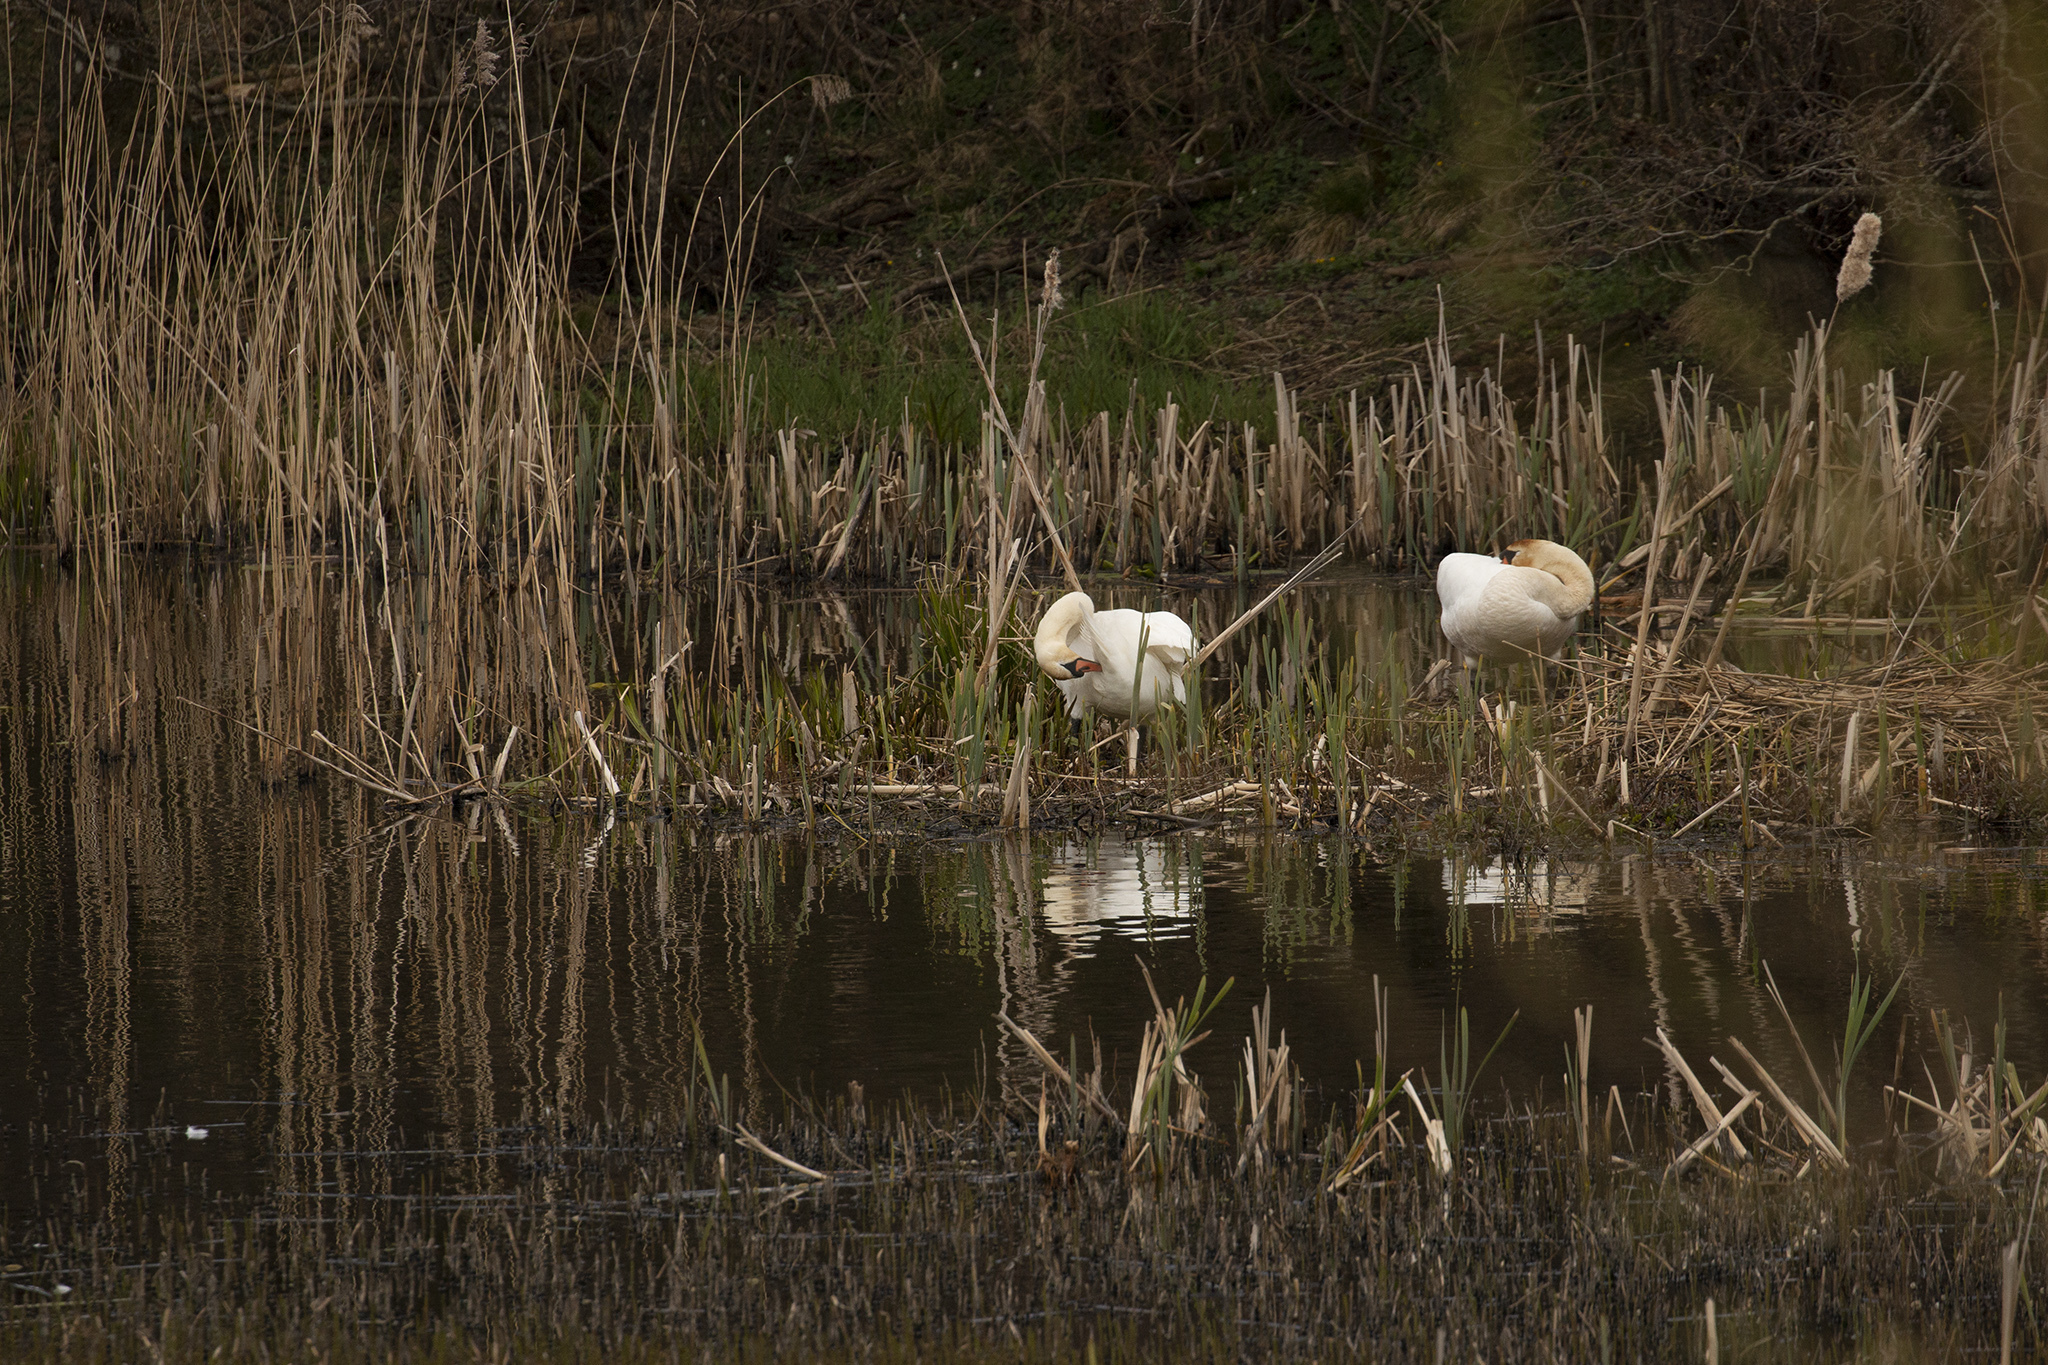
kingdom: Animalia
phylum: Chordata
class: Aves
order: Anseriformes
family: Anatidae
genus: Cygnus
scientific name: Cygnus olor
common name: Mute swan
